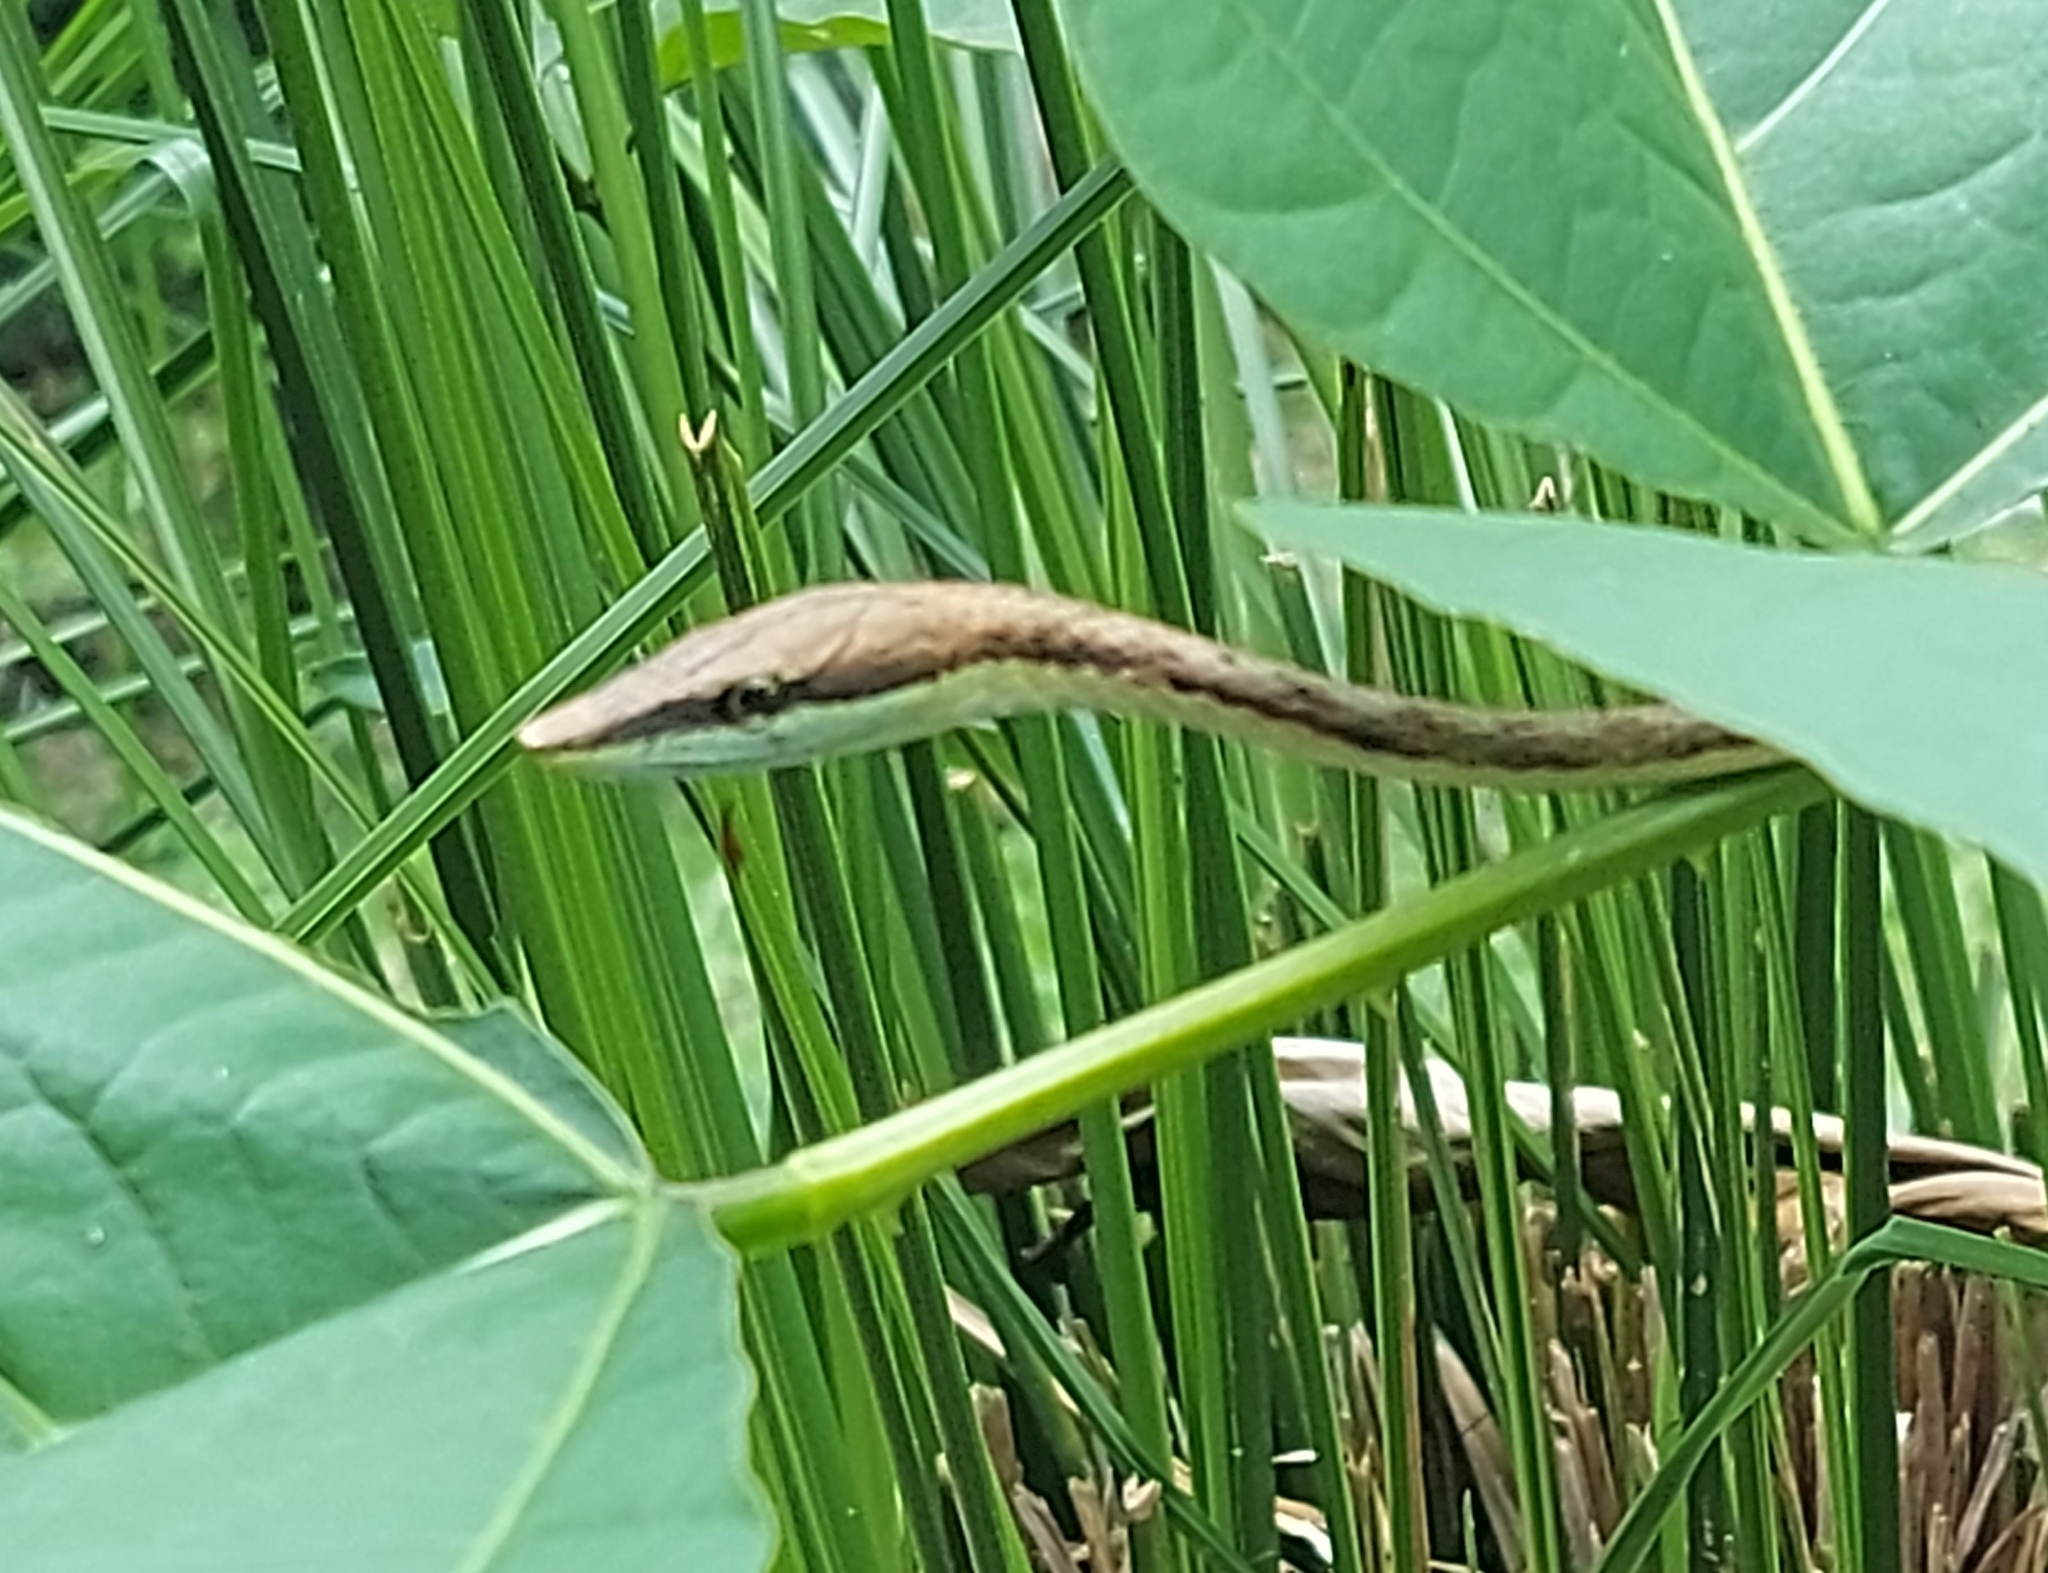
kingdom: Animalia
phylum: Chordata
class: Squamata
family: Colubridae
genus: Oxybelis
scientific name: Oxybelis koehleri
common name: Köhler’s vine snake
